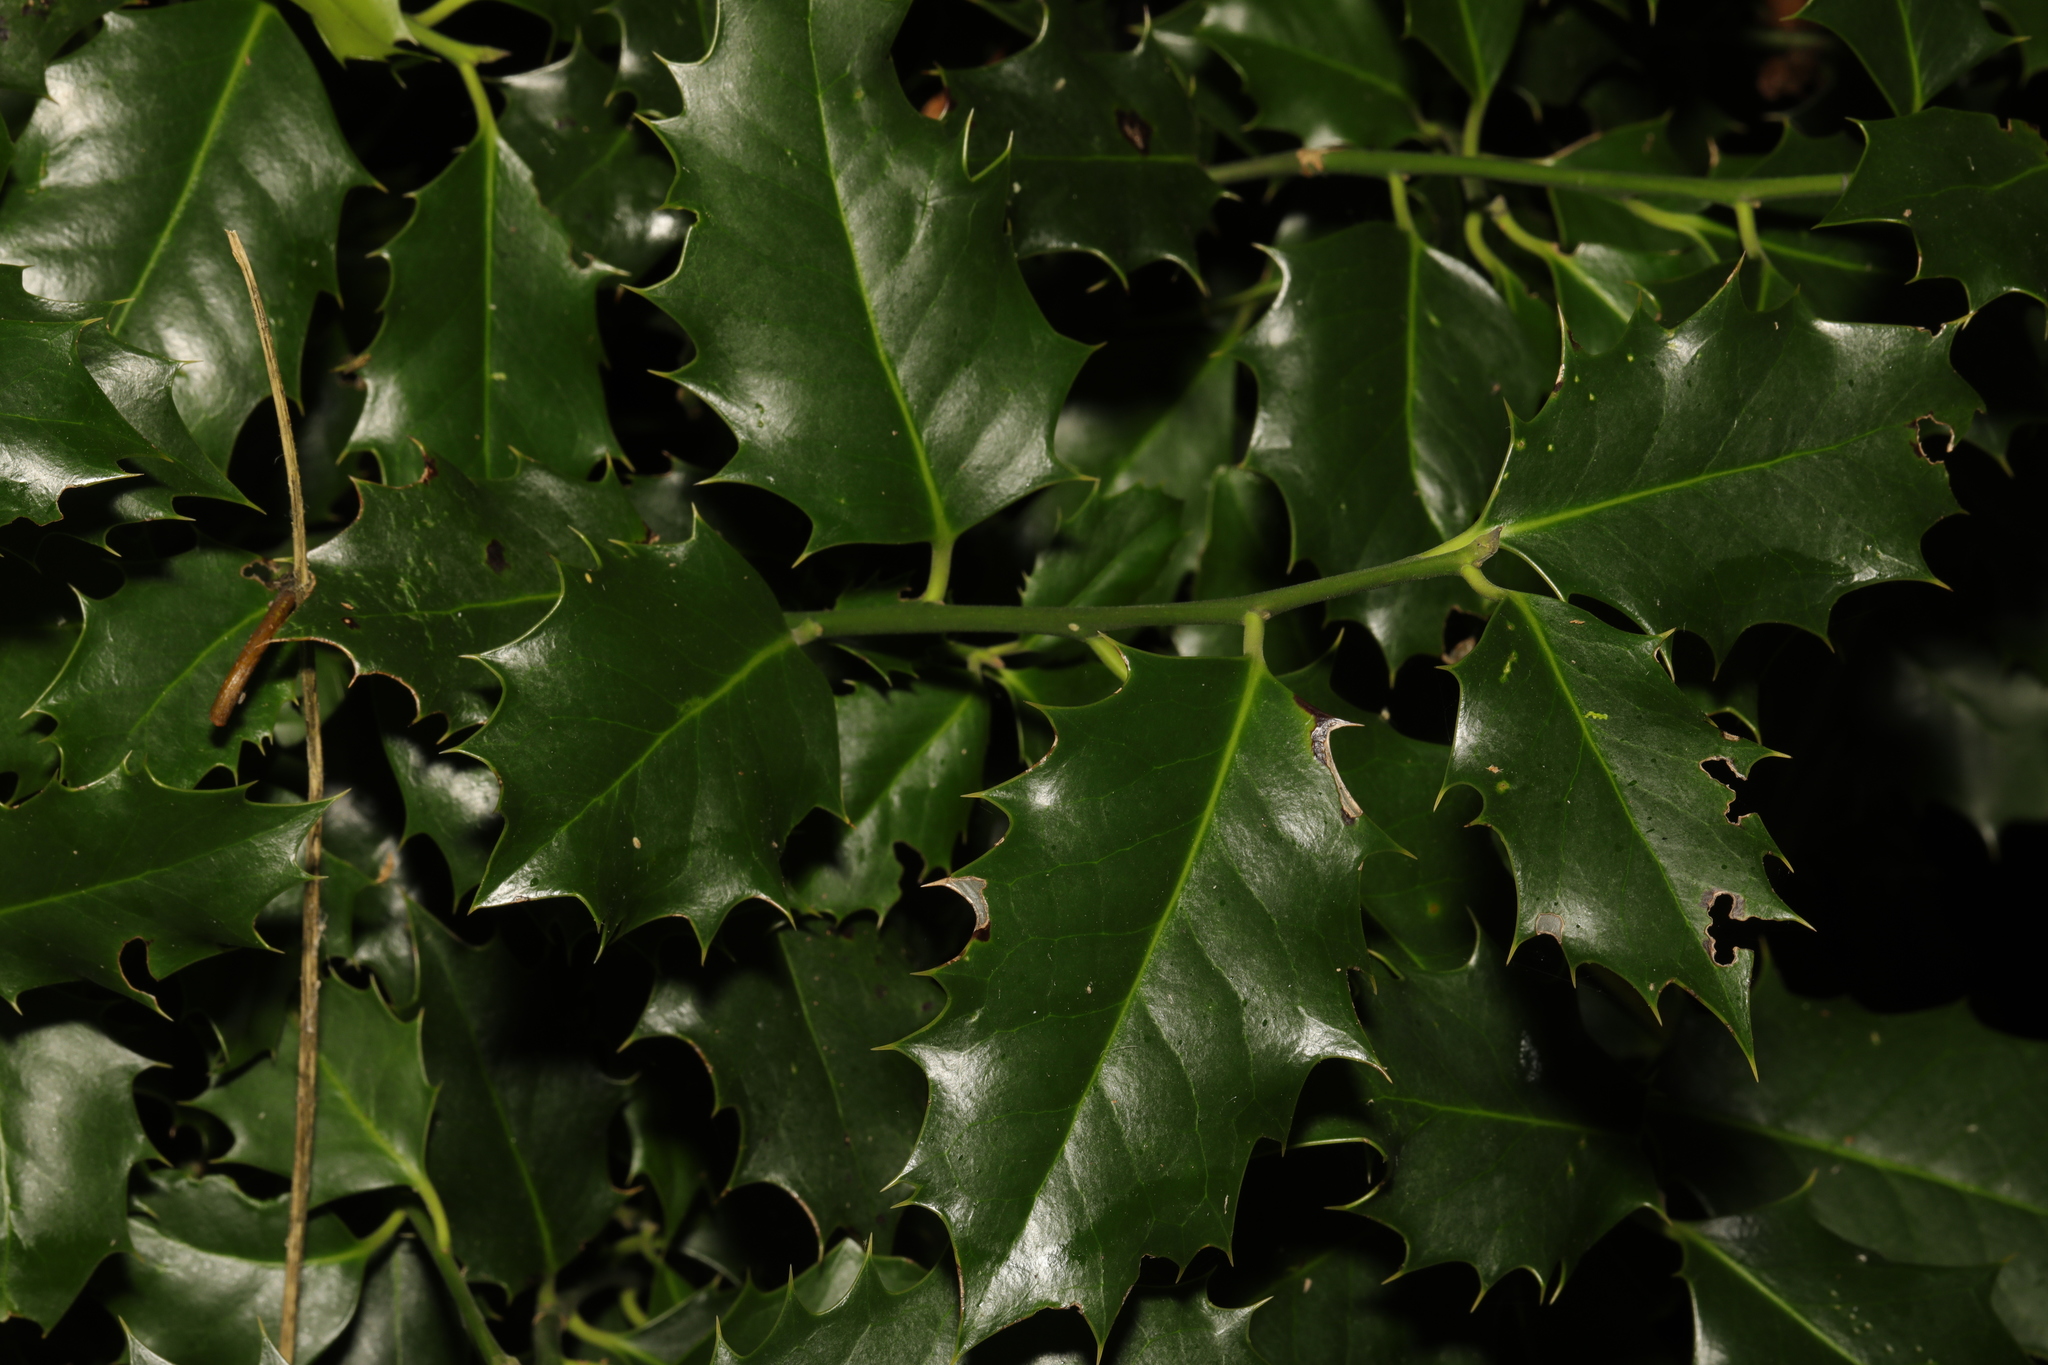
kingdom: Plantae
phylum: Tracheophyta
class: Magnoliopsida
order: Aquifoliales
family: Aquifoliaceae
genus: Ilex
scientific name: Ilex aquifolium
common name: English holly
